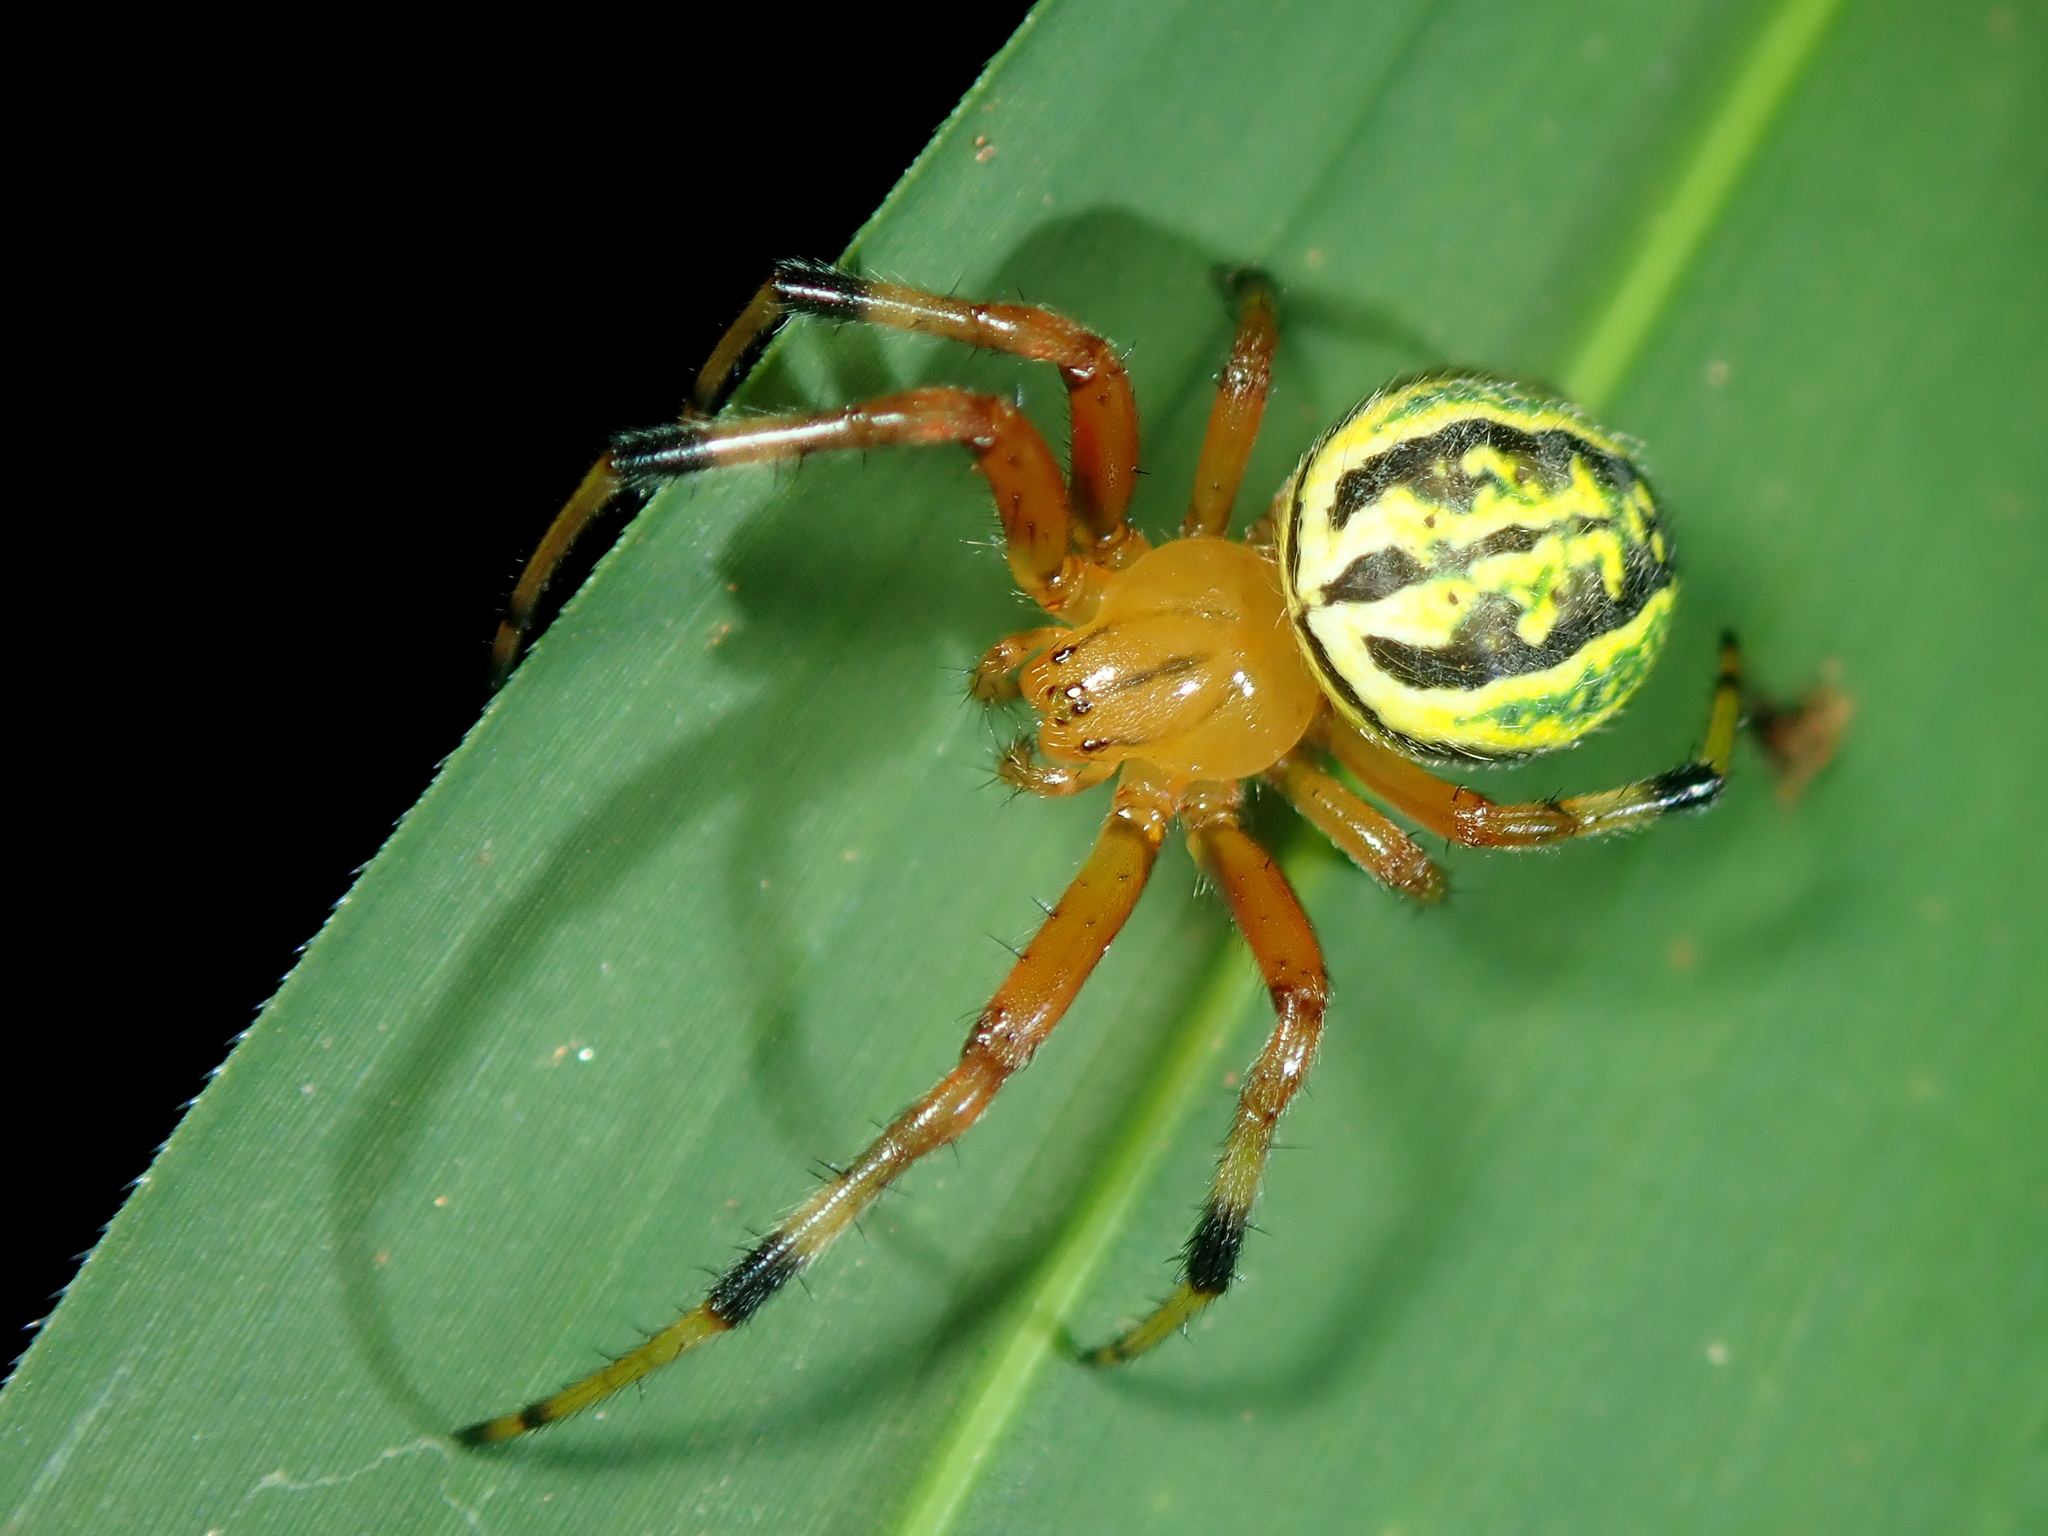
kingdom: Animalia
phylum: Arthropoda
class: Arachnida
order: Araneae
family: Araneidae
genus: Araneus
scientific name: Araneus guttatus
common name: Orb weavers
